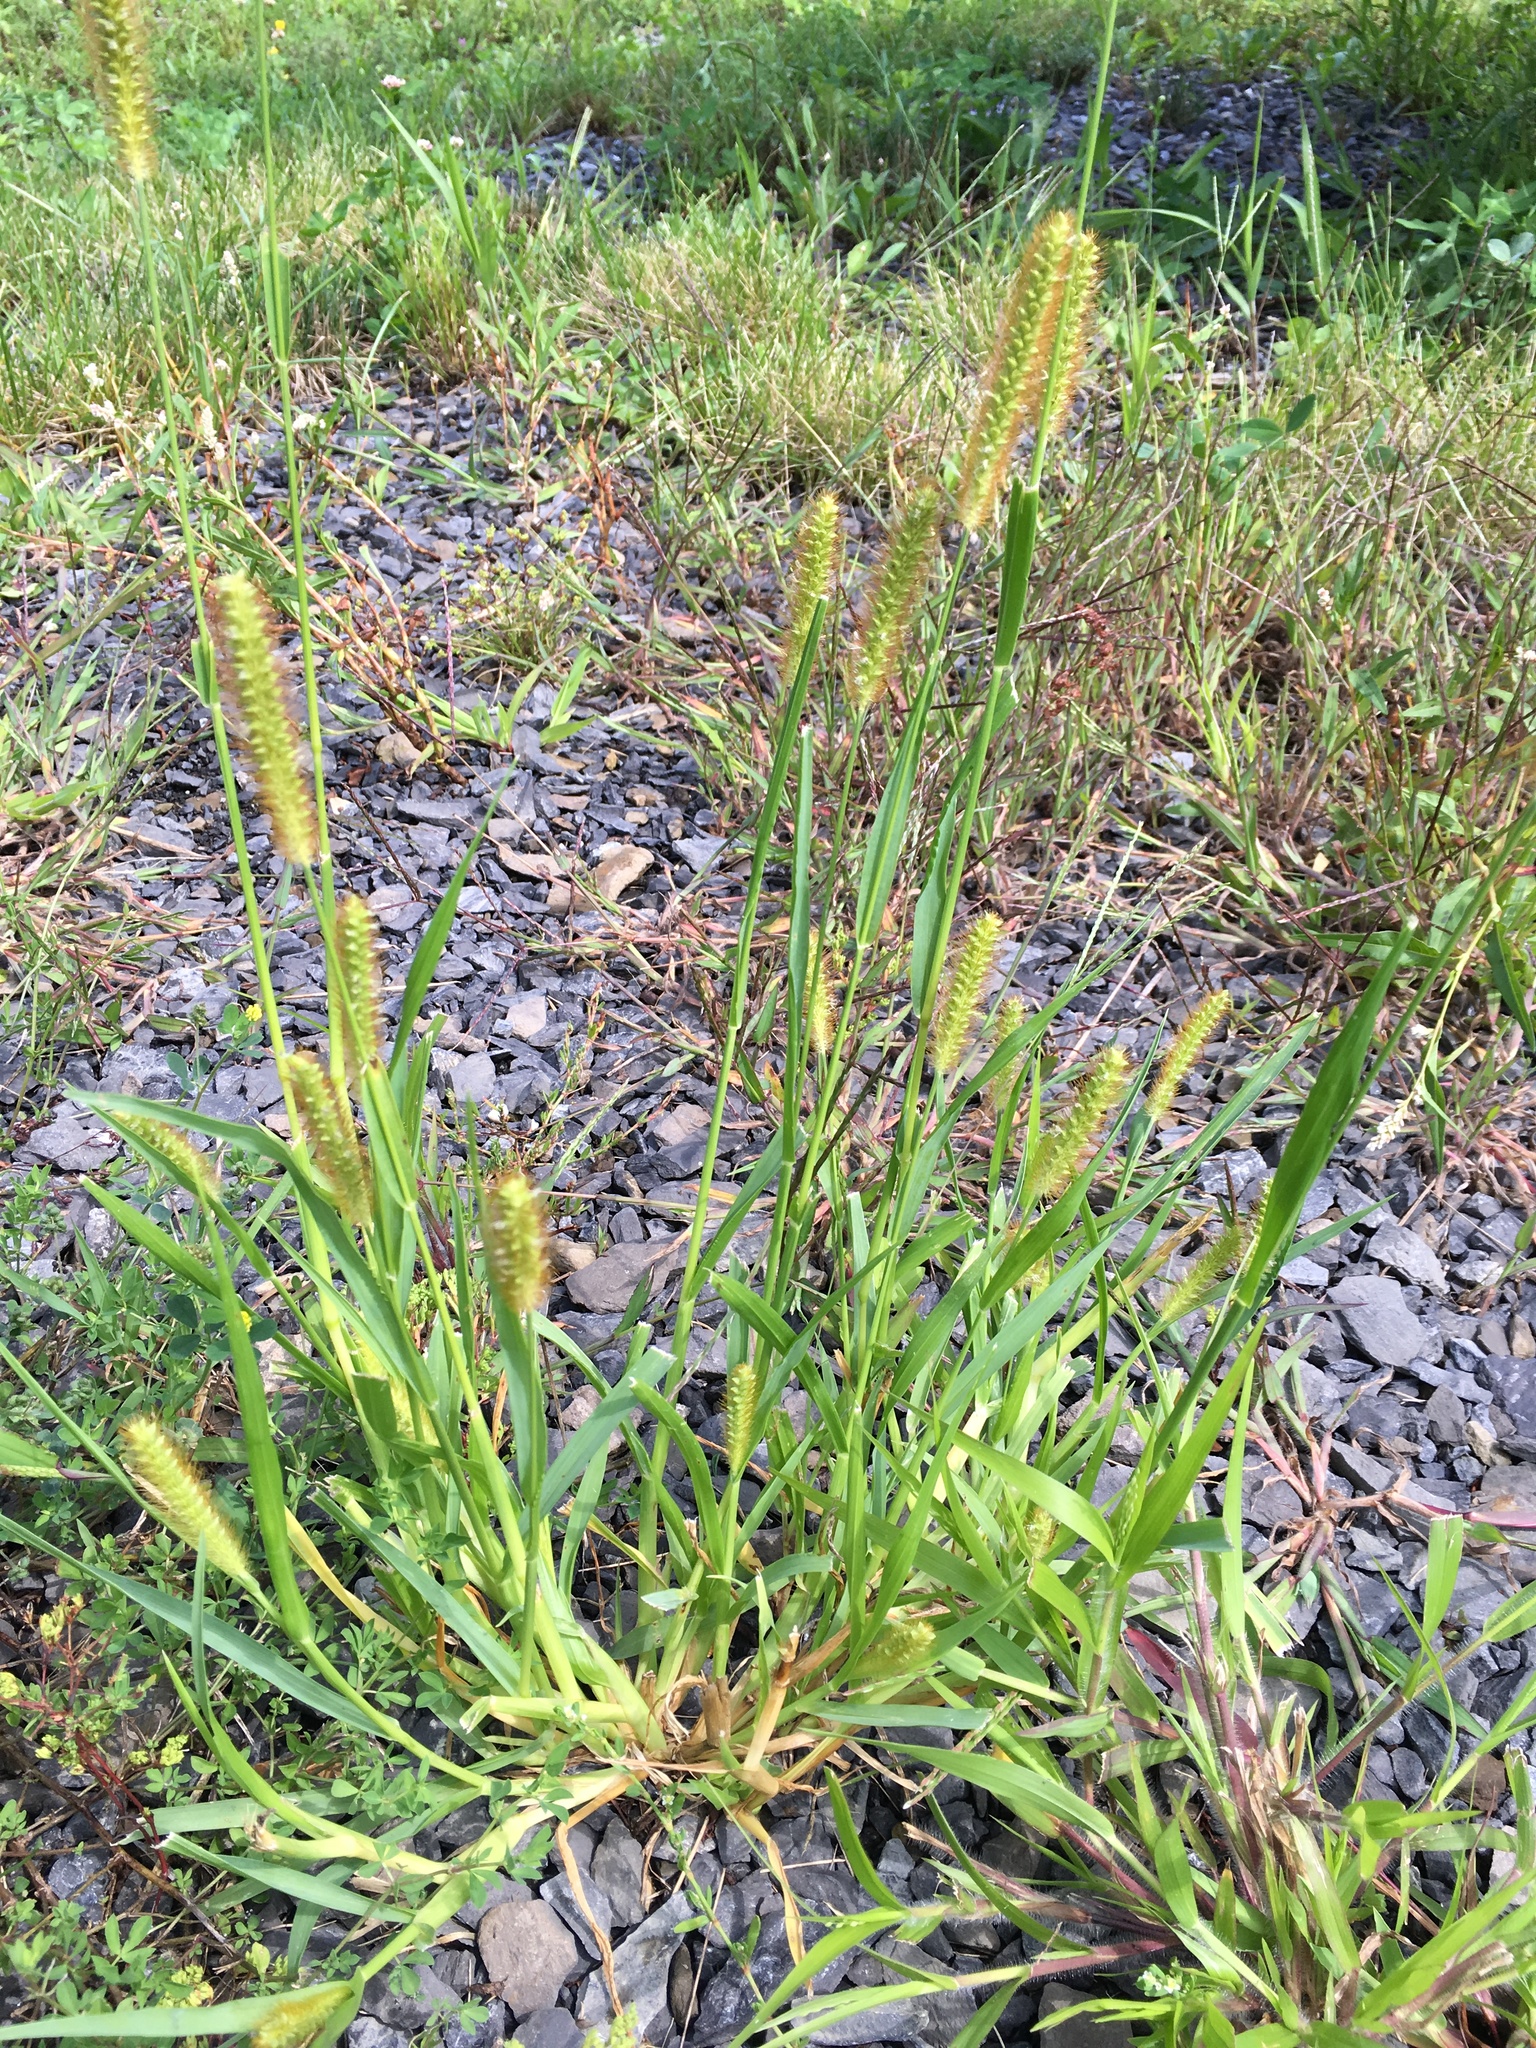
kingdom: Plantae
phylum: Tracheophyta
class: Liliopsida
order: Poales
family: Poaceae
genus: Setaria
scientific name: Setaria pumila
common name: Yellow bristle-grass
